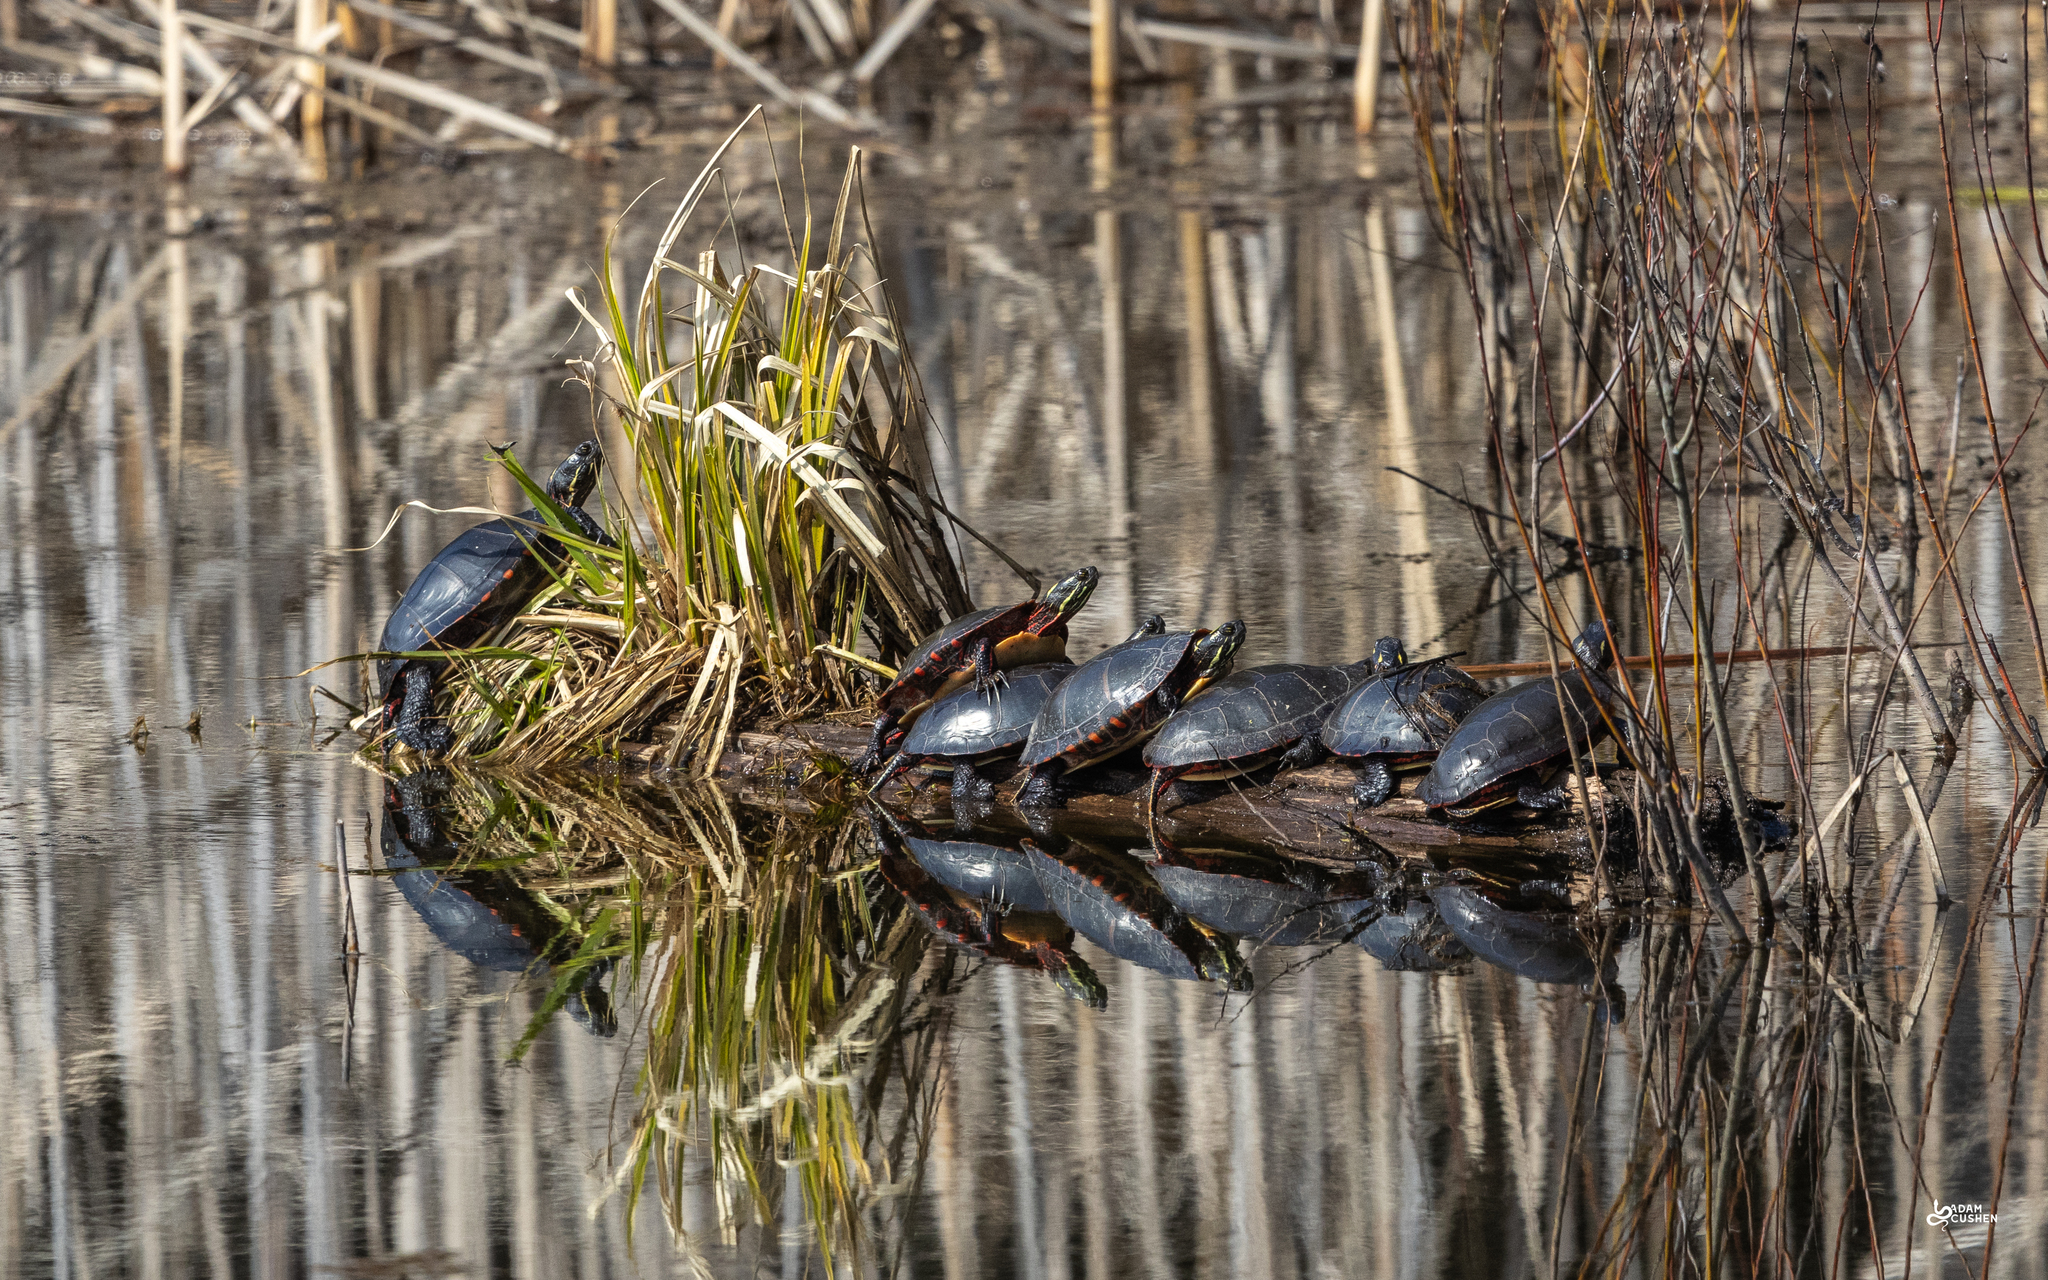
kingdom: Animalia
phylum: Chordata
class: Testudines
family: Emydidae
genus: Chrysemys
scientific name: Chrysemys picta
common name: Painted turtle
